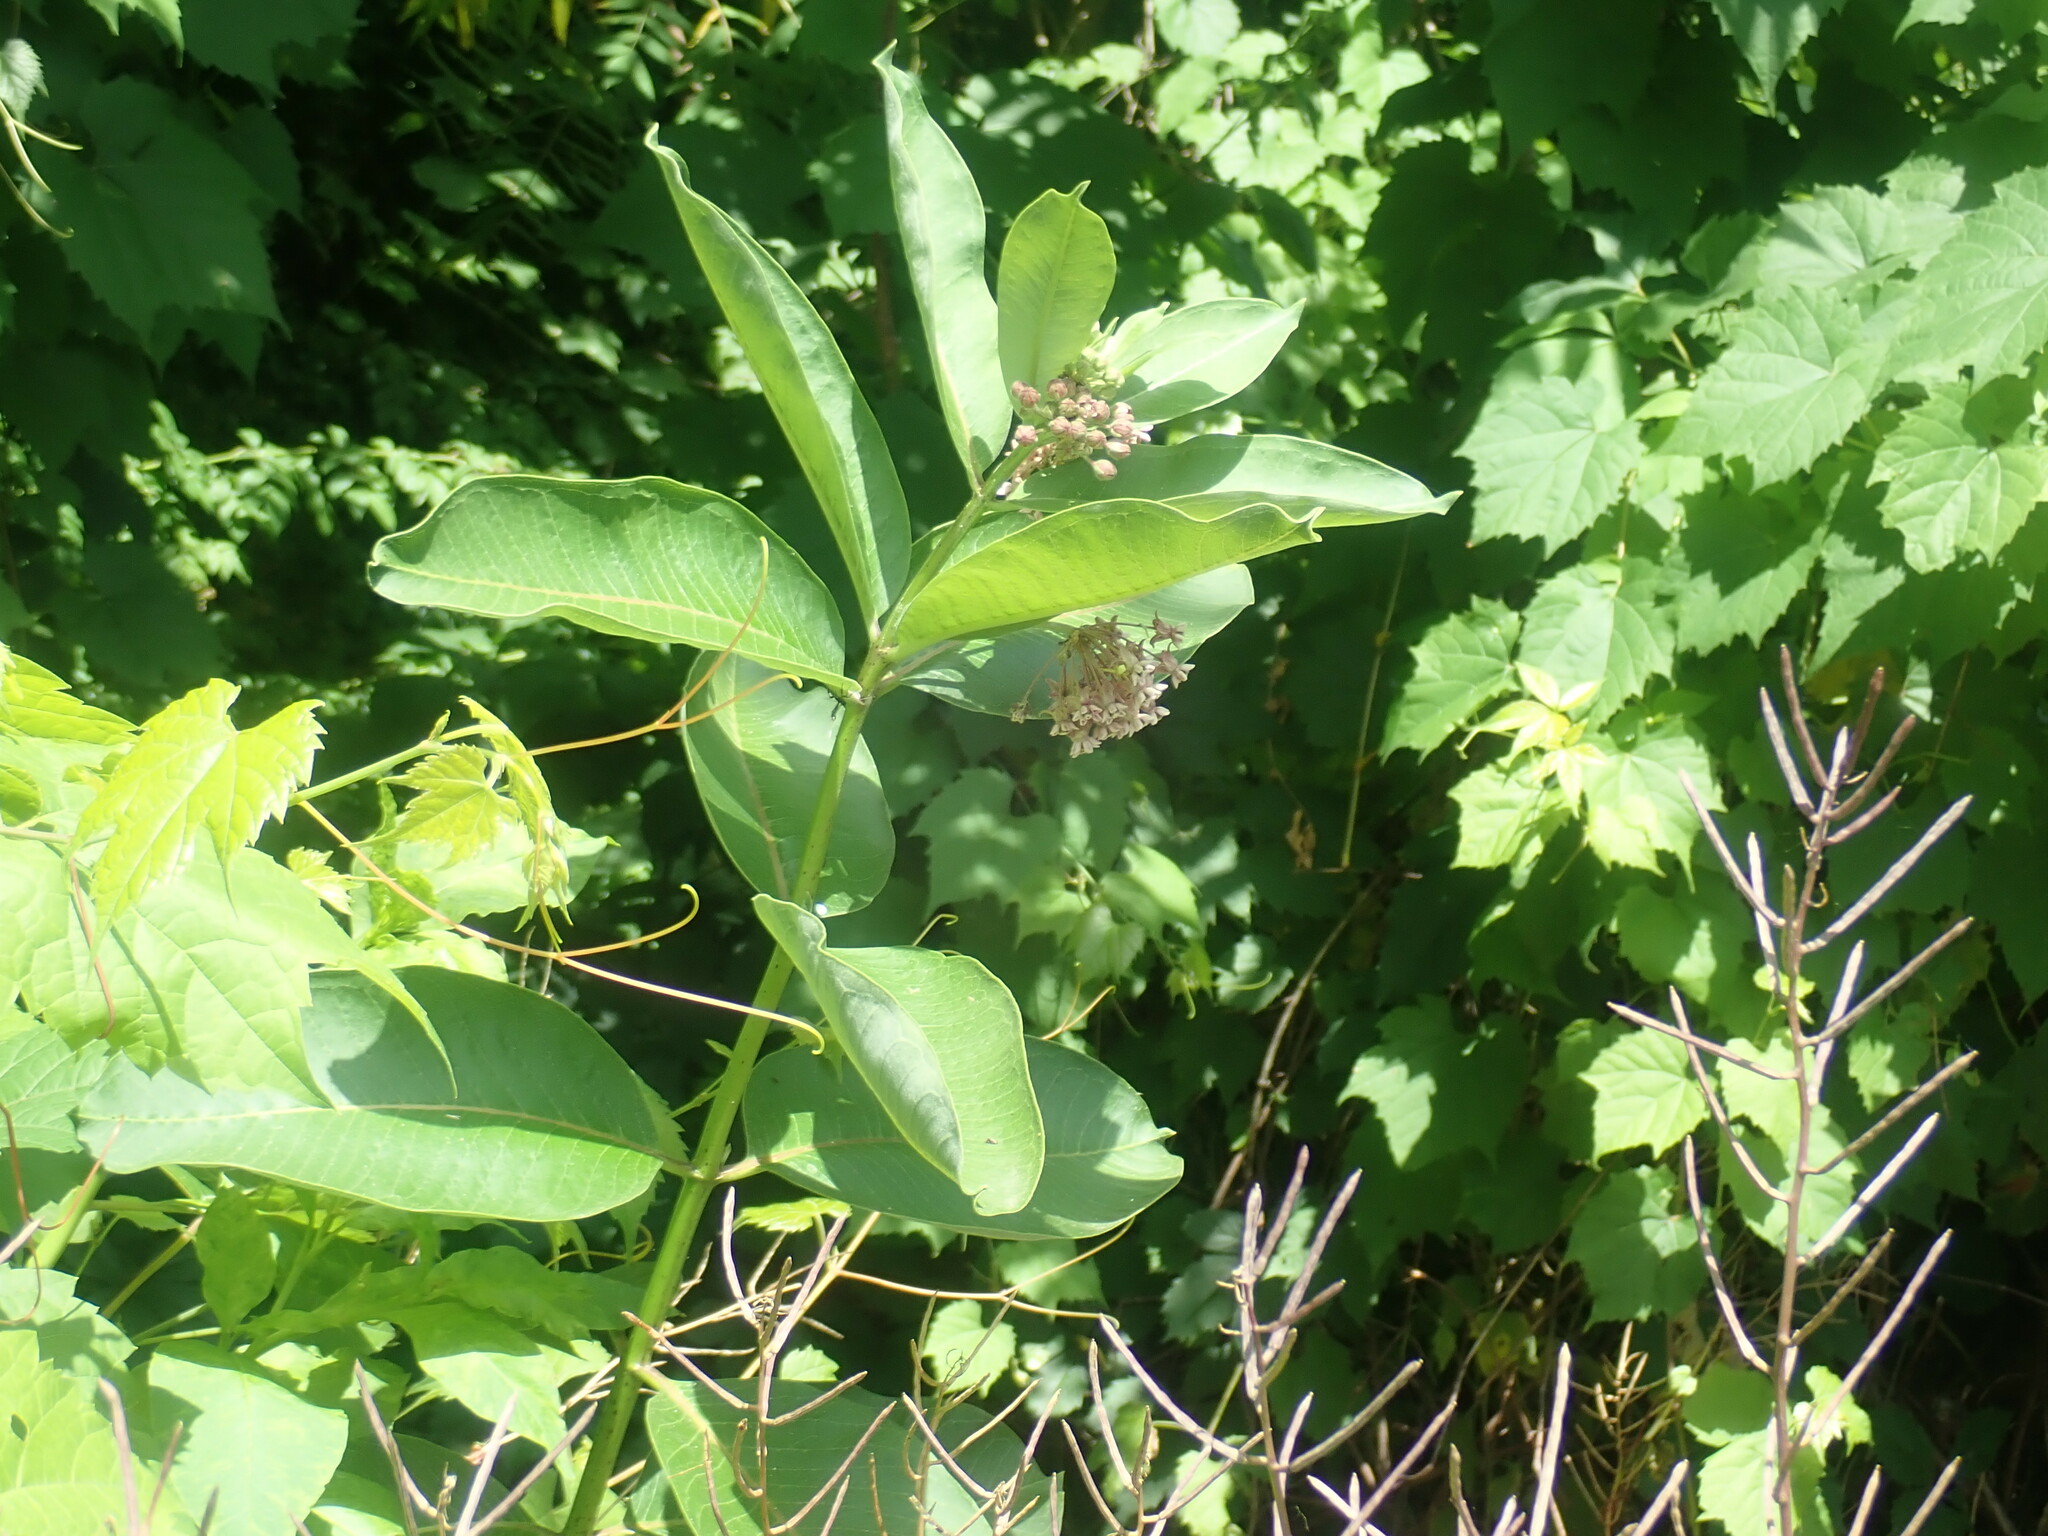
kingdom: Plantae
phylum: Tracheophyta
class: Magnoliopsida
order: Gentianales
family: Apocynaceae
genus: Asclepias
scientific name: Asclepias syriaca
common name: Common milkweed
